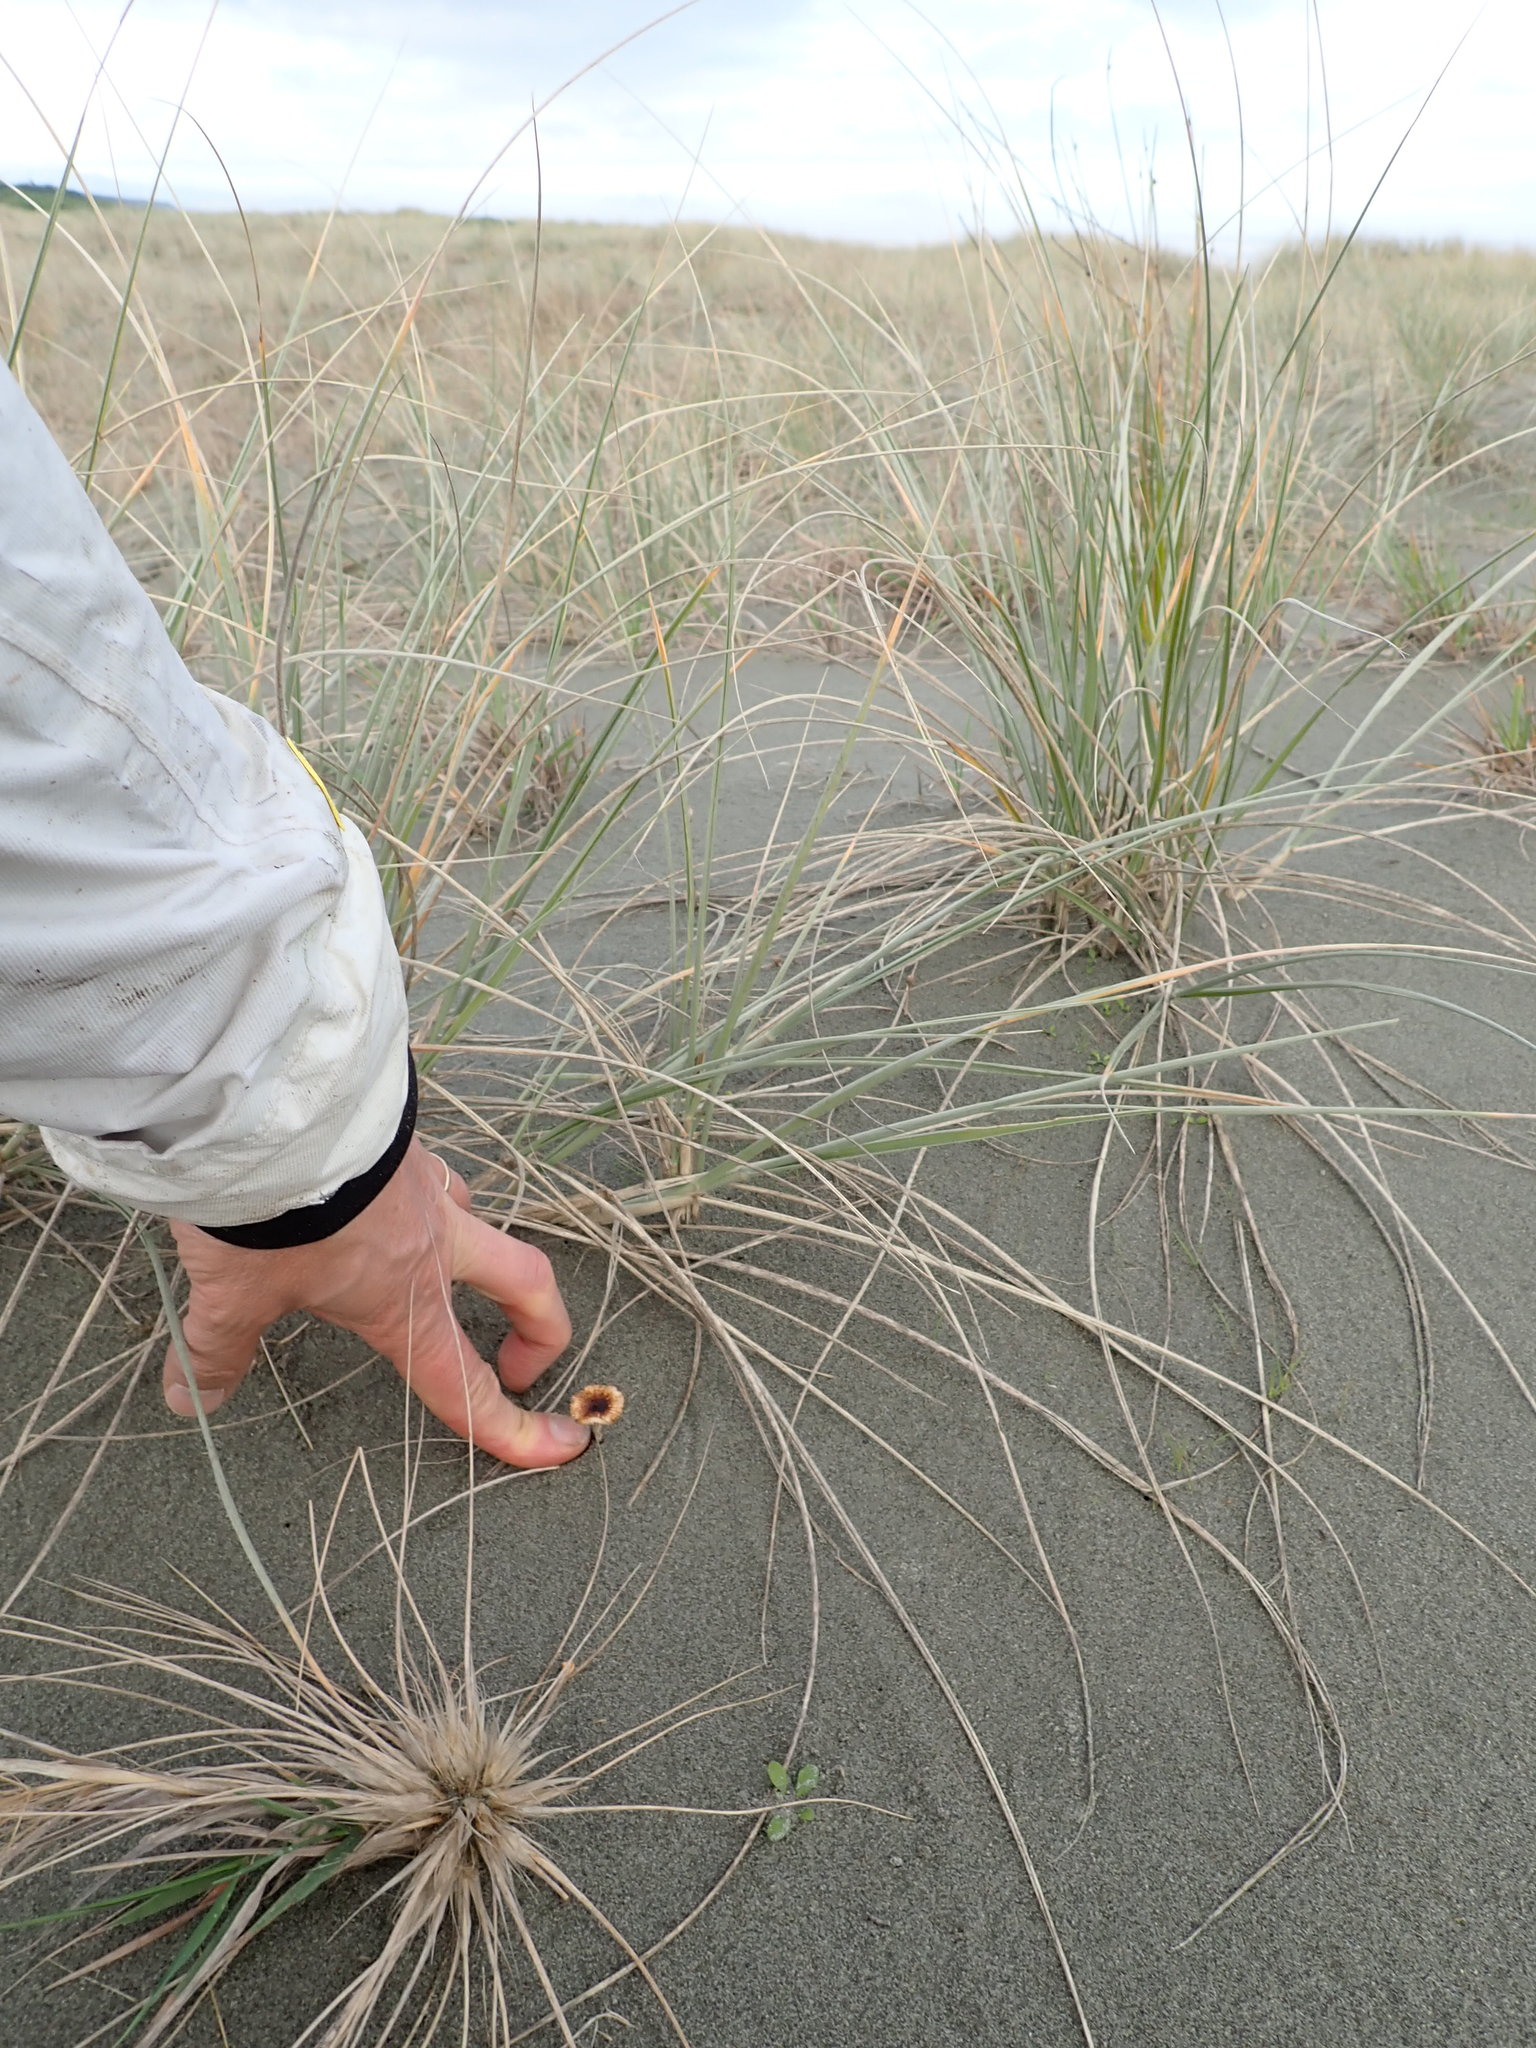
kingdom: Fungi
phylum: Basidiomycota
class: Agaricomycetes
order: Agaricales
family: Marasmiaceae
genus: Crinipellis
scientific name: Crinipellis scabella
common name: Hairy parachute
